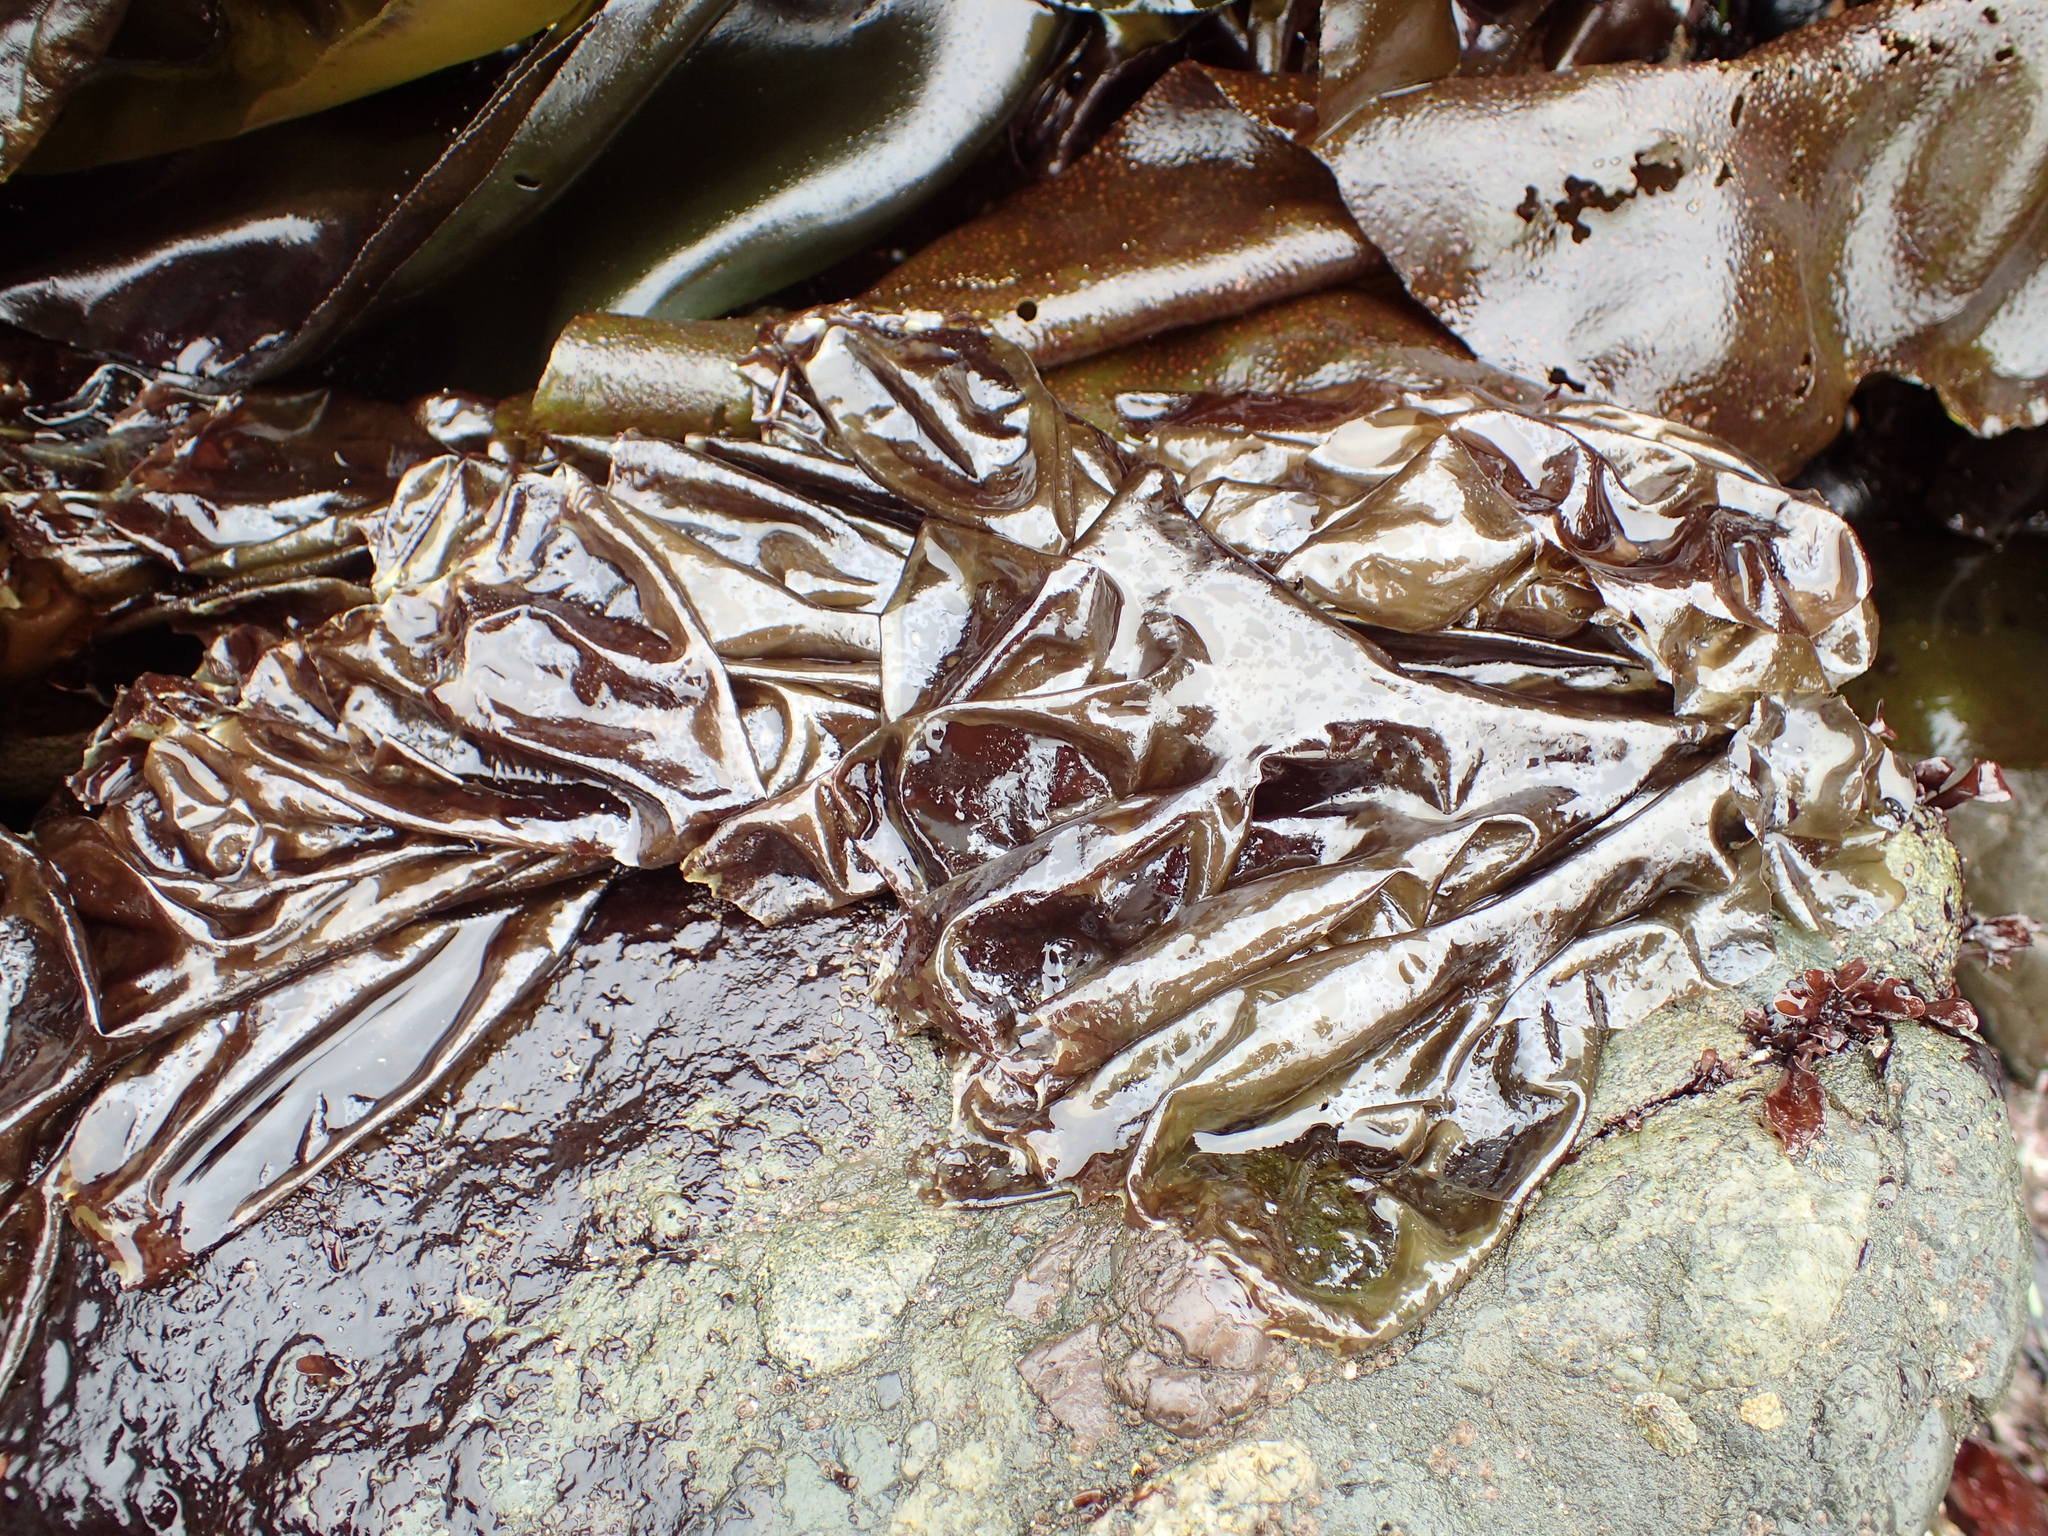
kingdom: Plantae
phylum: Rhodophyta
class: Bangiophyceae
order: Bangiales
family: Bangiaceae
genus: Neoporphyra
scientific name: Neoporphyra perforata
